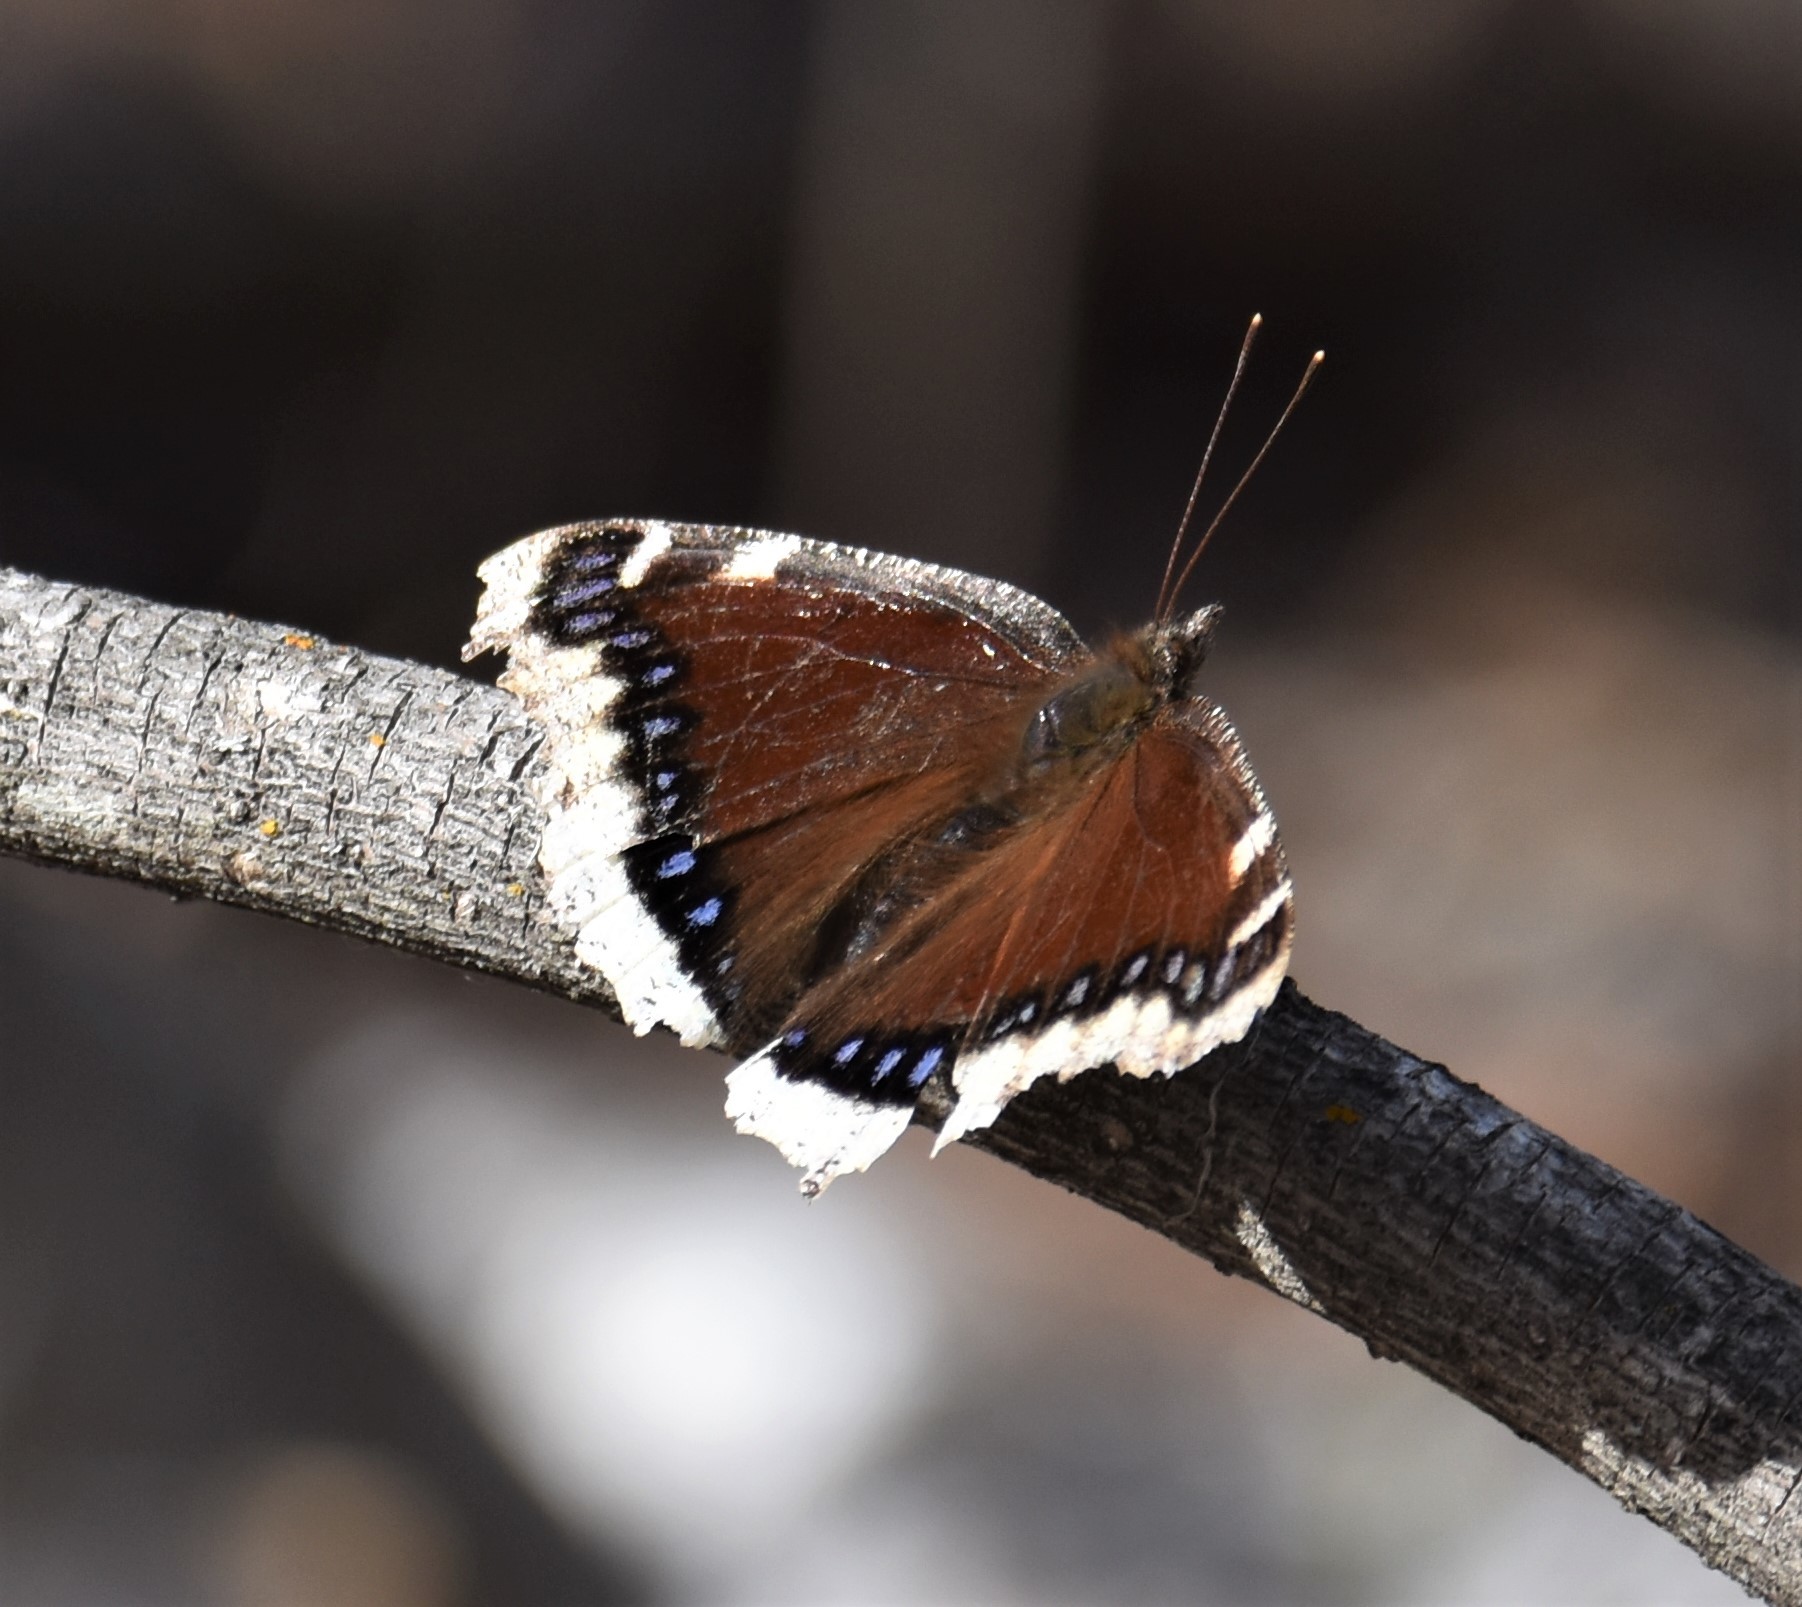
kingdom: Animalia
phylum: Arthropoda
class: Insecta
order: Lepidoptera
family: Nymphalidae
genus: Nymphalis
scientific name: Nymphalis antiopa
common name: Camberwell beauty
